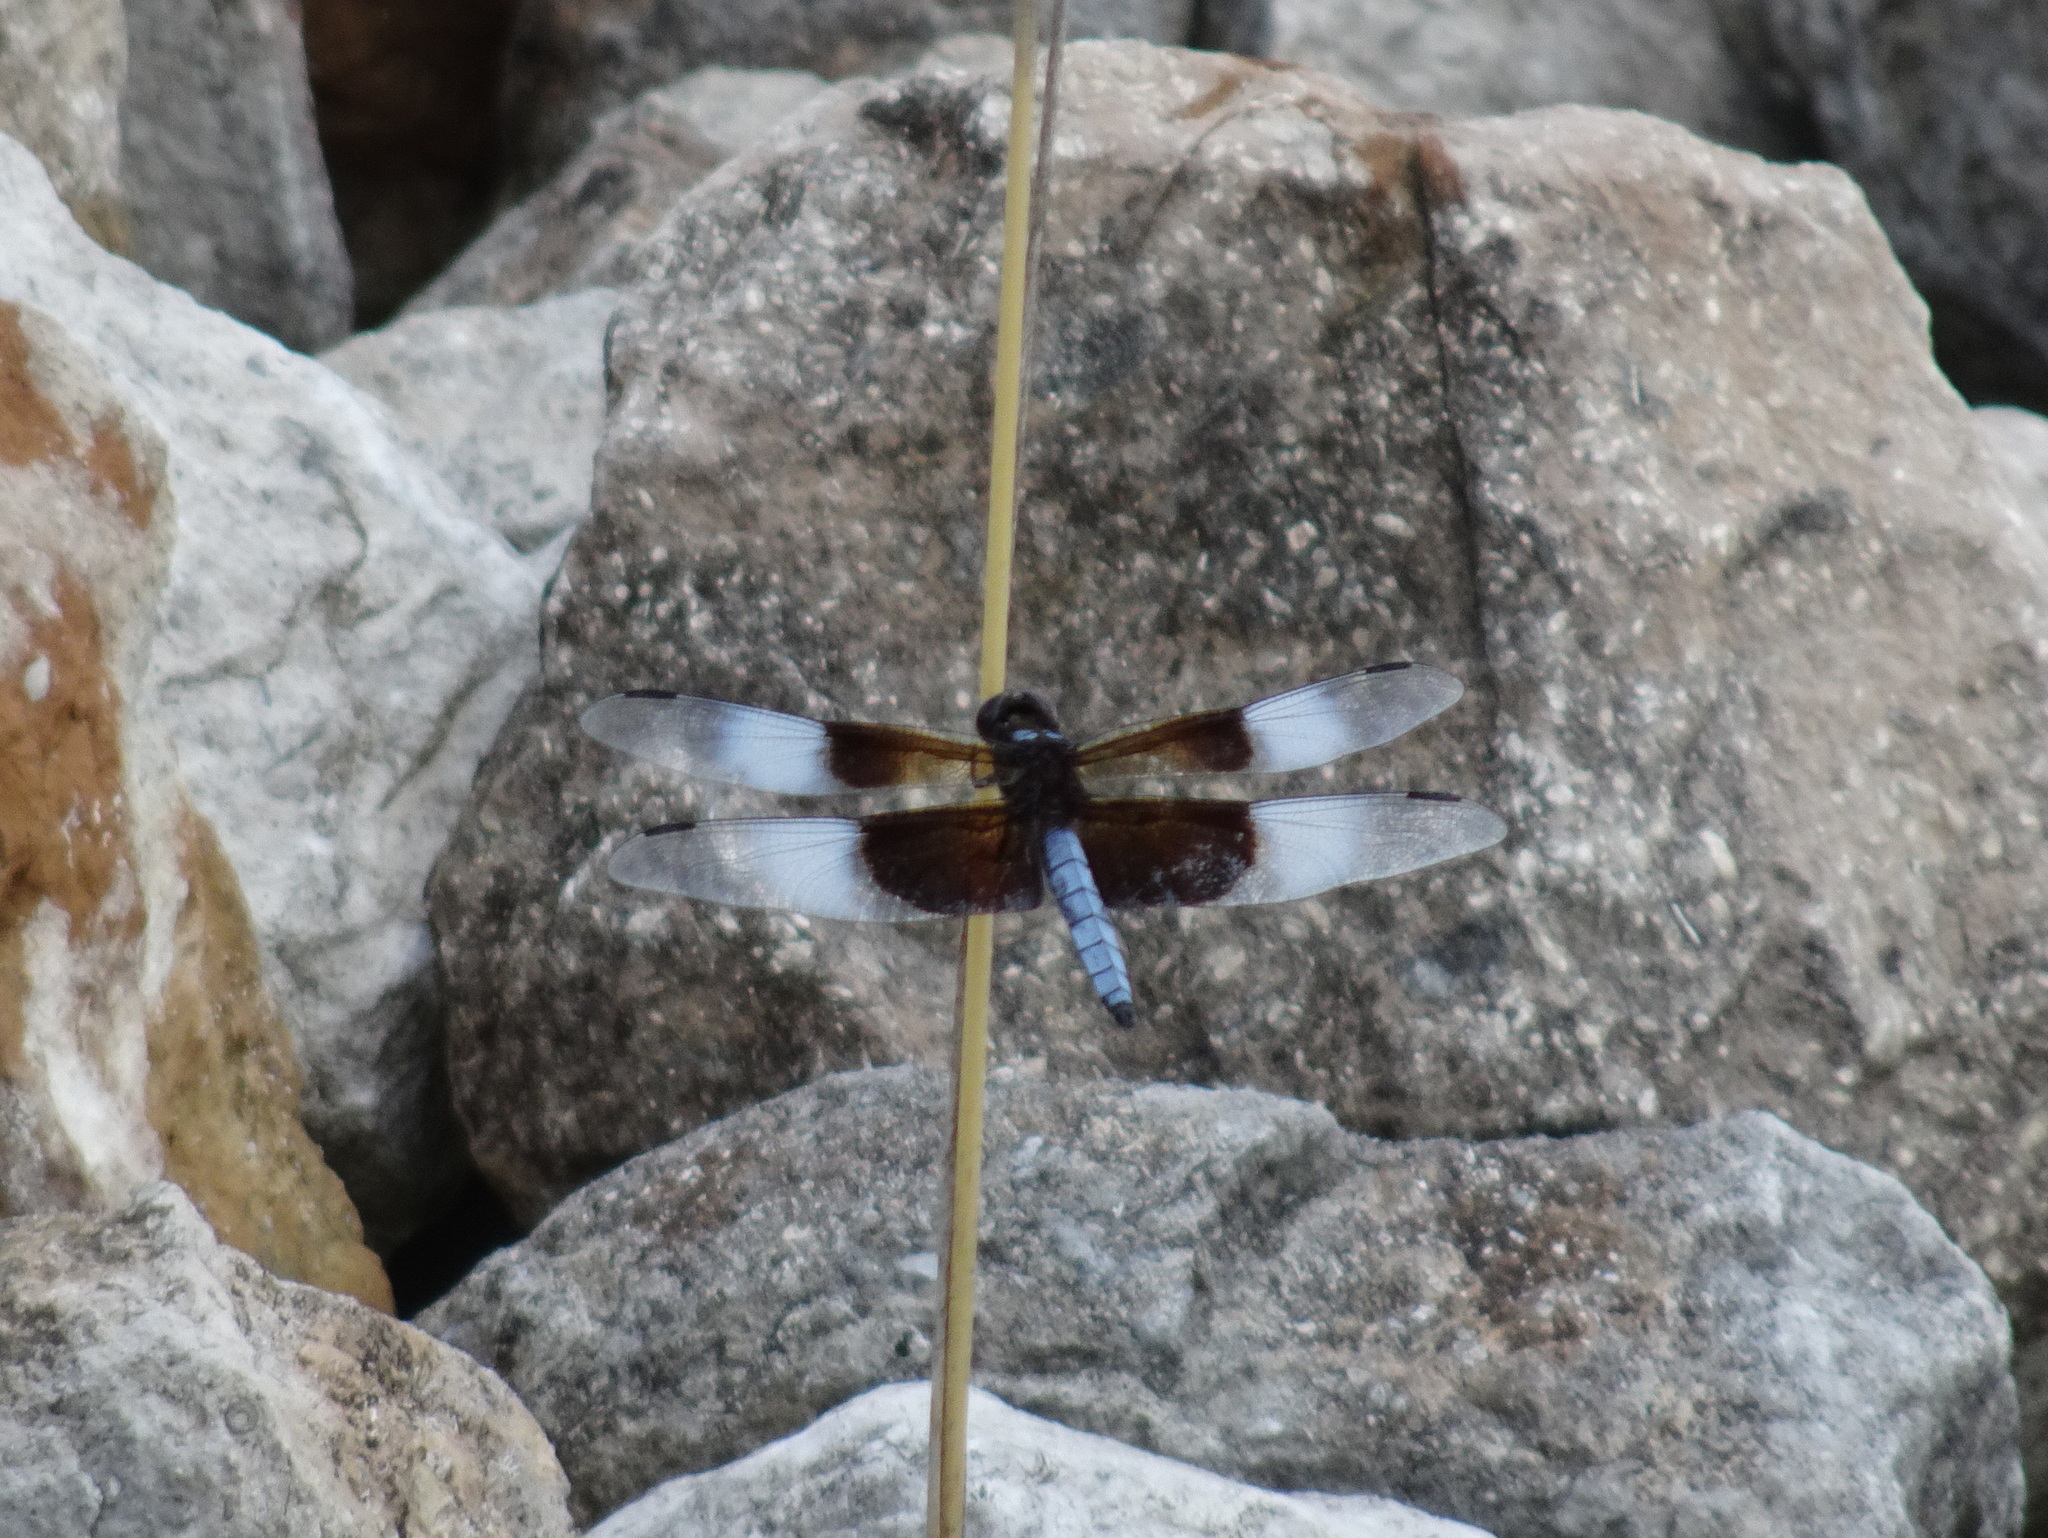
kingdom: Animalia
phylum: Arthropoda
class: Insecta
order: Odonata
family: Libellulidae
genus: Libellula
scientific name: Libellula luctuosa
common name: Widow skimmer
